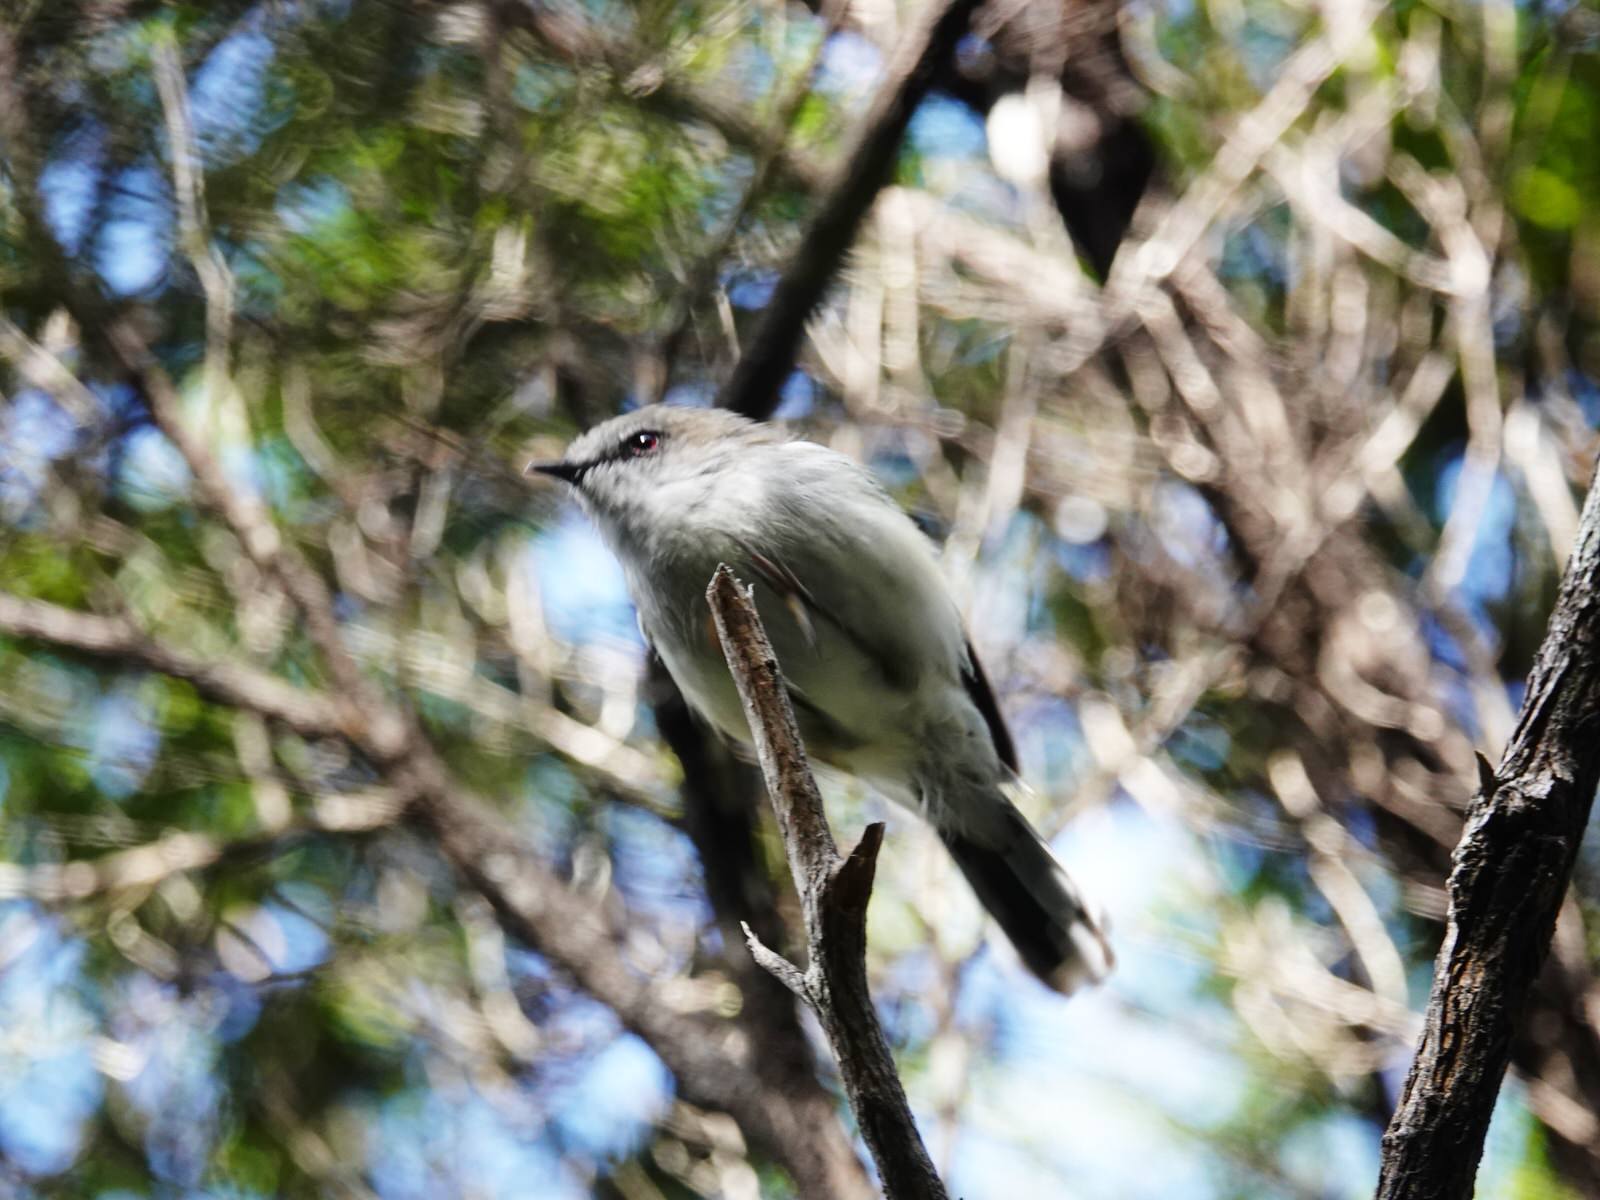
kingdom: Animalia
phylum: Chordata
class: Aves
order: Passeriformes
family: Acanthizidae
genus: Gerygone
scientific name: Gerygone igata
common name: Grey gerygone
